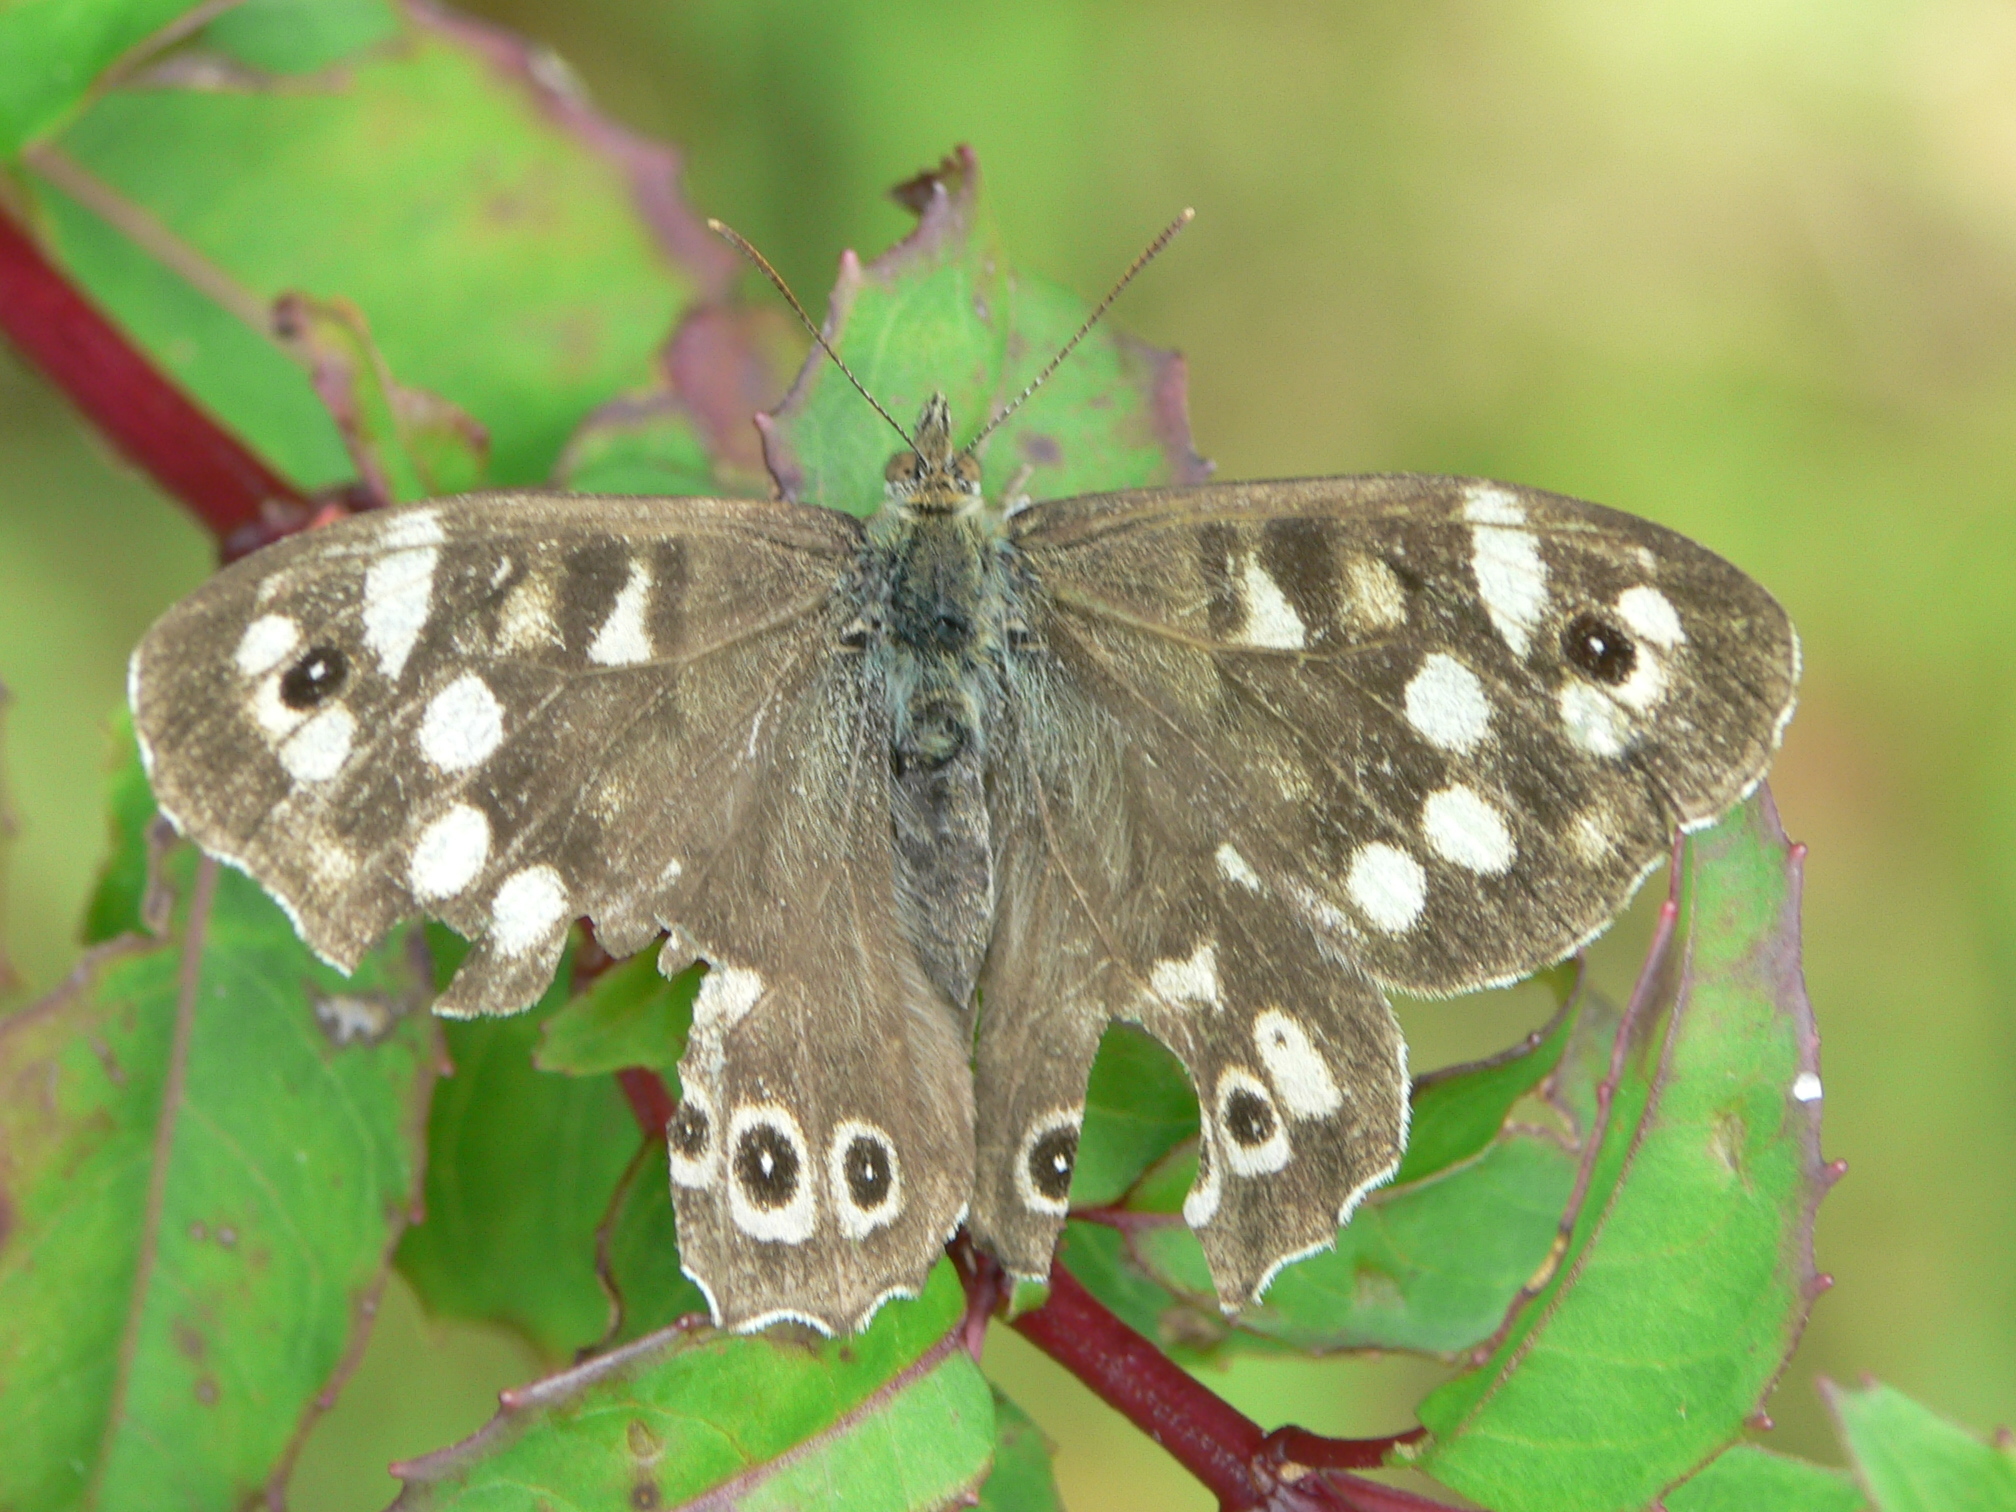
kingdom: Animalia
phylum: Arthropoda
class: Insecta
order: Lepidoptera
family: Nymphalidae
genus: Pararge
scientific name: Pararge aegeria
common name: Speckled wood
